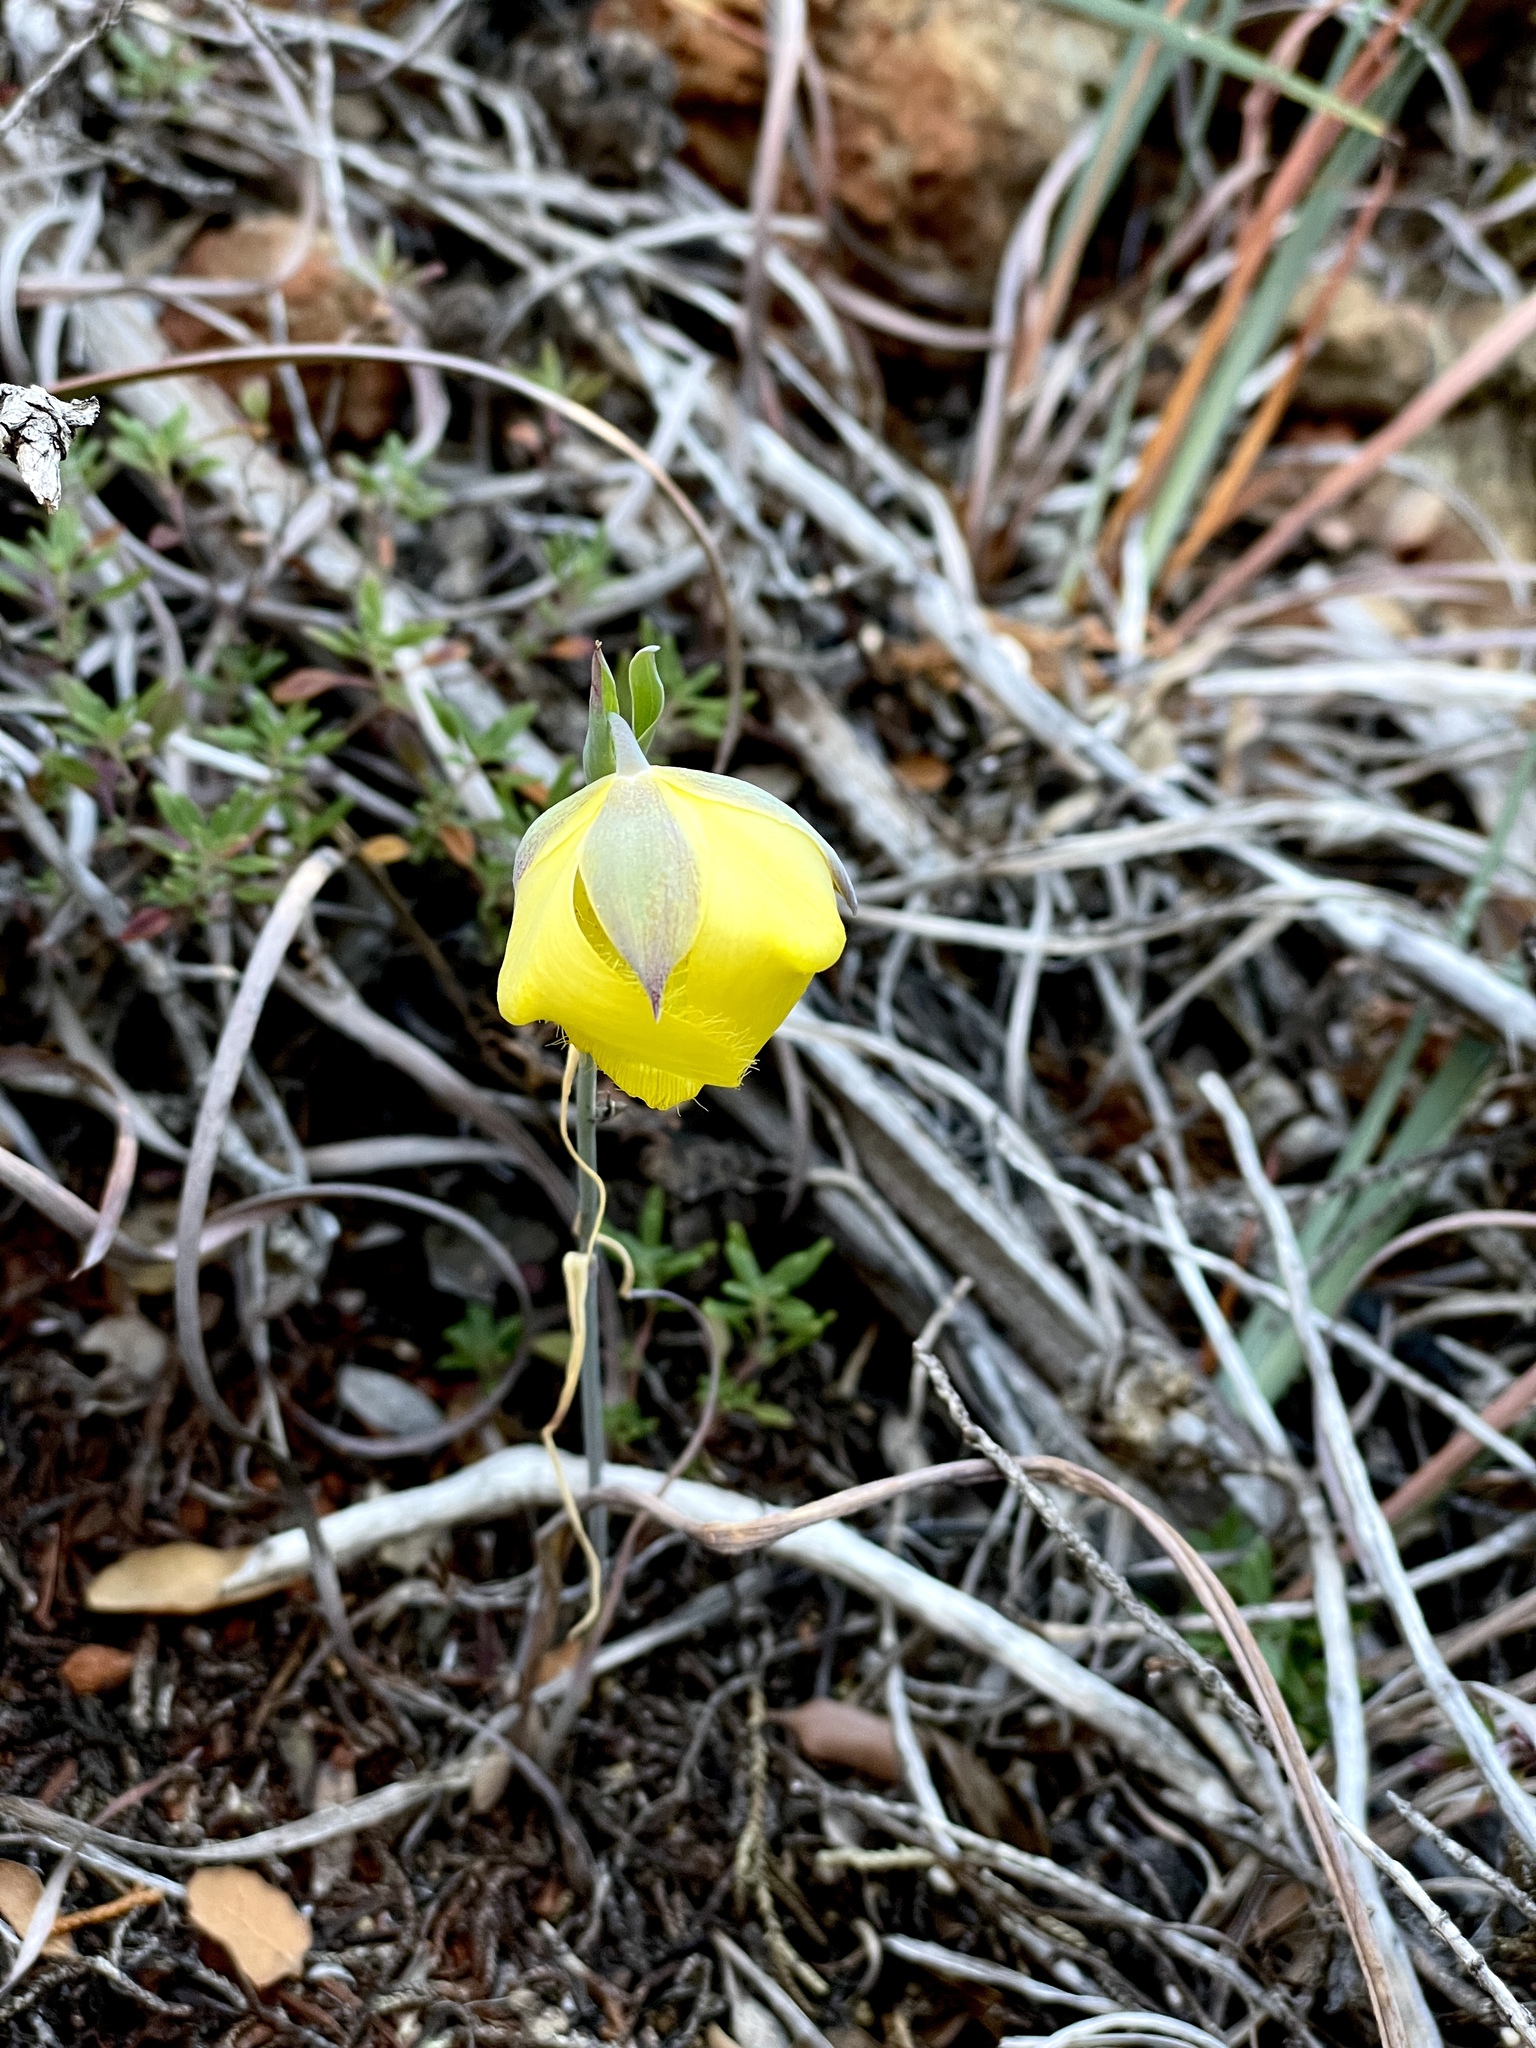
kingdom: Plantae
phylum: Tracheophyta
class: Liliopsida
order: Liliales
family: Liliaceae
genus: Calochortus
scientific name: Calochortus raichei
